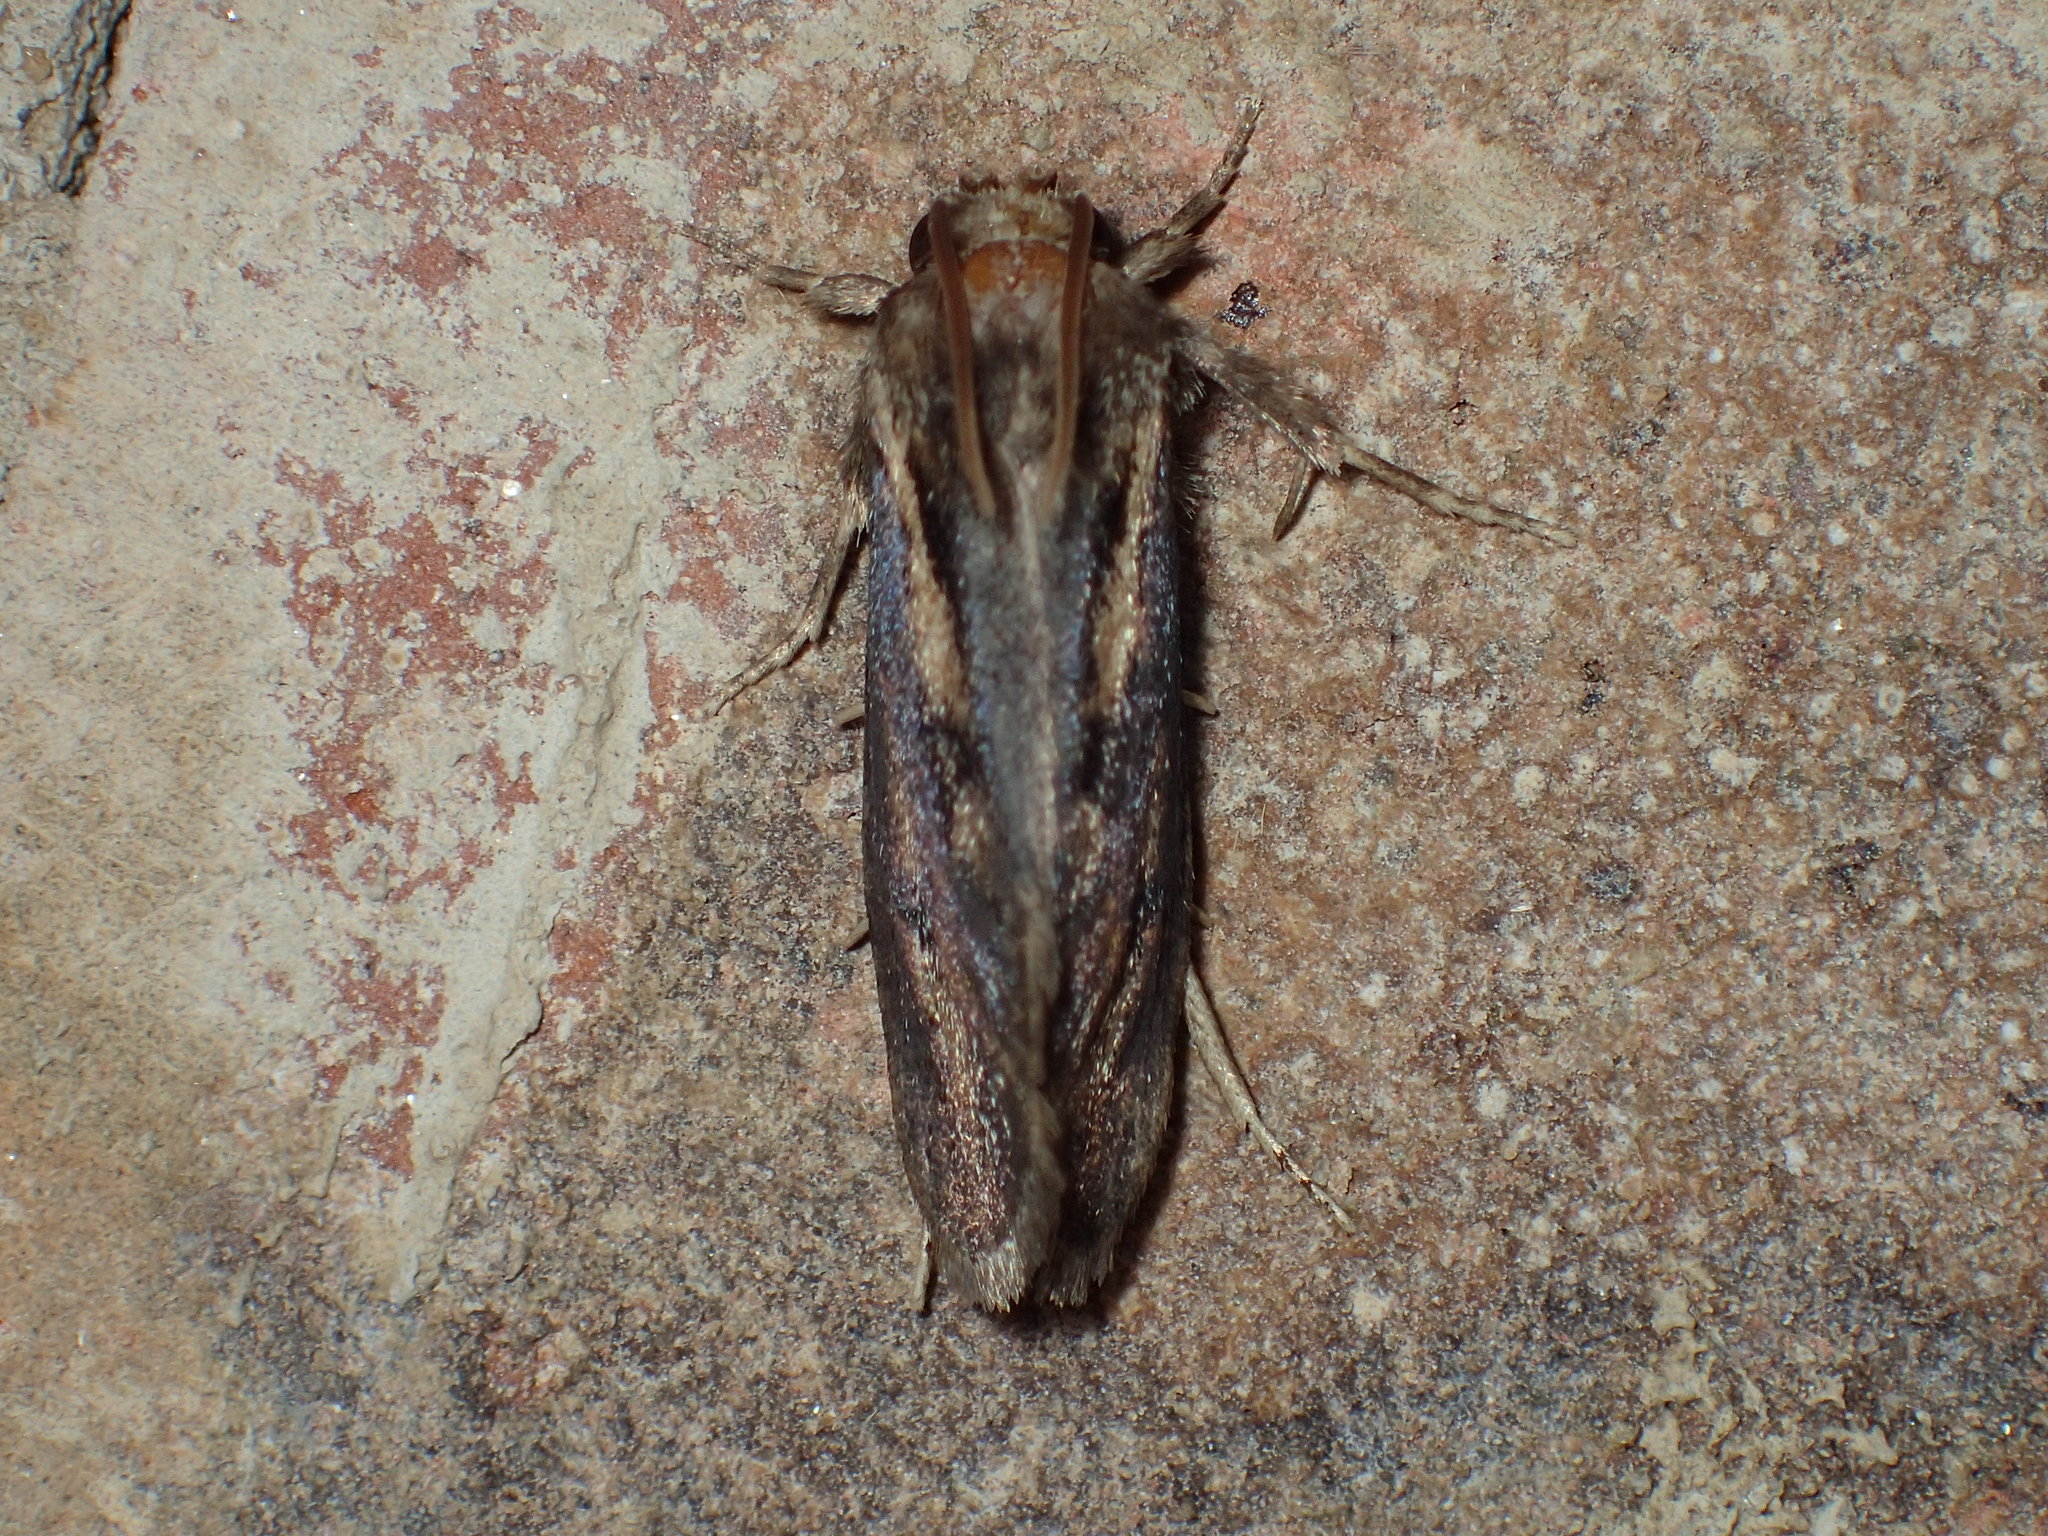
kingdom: Animalia
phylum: Arthropoda
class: Insecta
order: Lepidoptera
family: Tineidae
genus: Acrolophus
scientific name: Acrolophus popeanella
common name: Clemens' grass tubeworm moth
